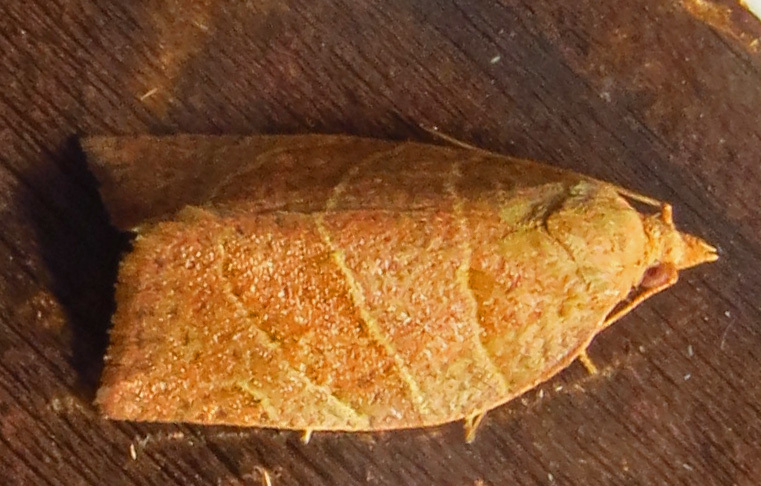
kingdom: Animalia
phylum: Arthropoda
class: Insecta
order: Lepidoptera
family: Tortricidae
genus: Pandemis
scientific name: Pandemis limitata
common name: Three-lined leafroller moth
